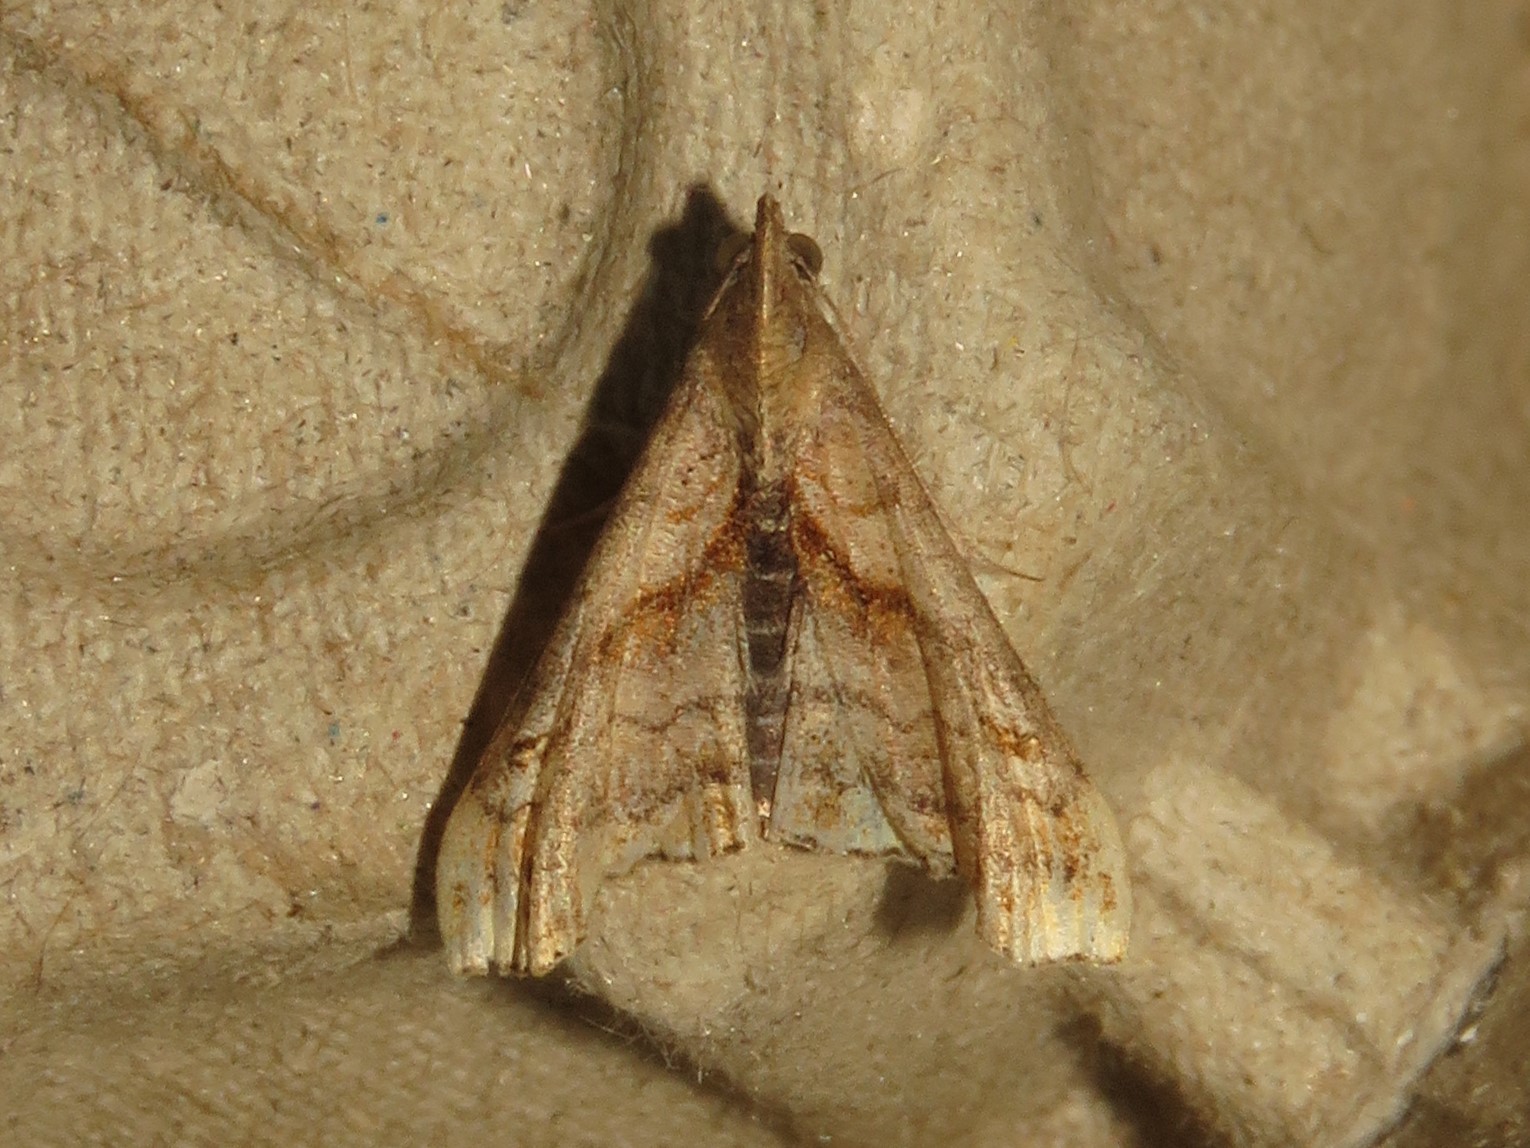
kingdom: Animalia
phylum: Arthropoda
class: Insecta
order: Lepidoptera
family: Erebidae
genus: Palthis
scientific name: Palthis angulalis
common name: Dark-spotted palthis moth
